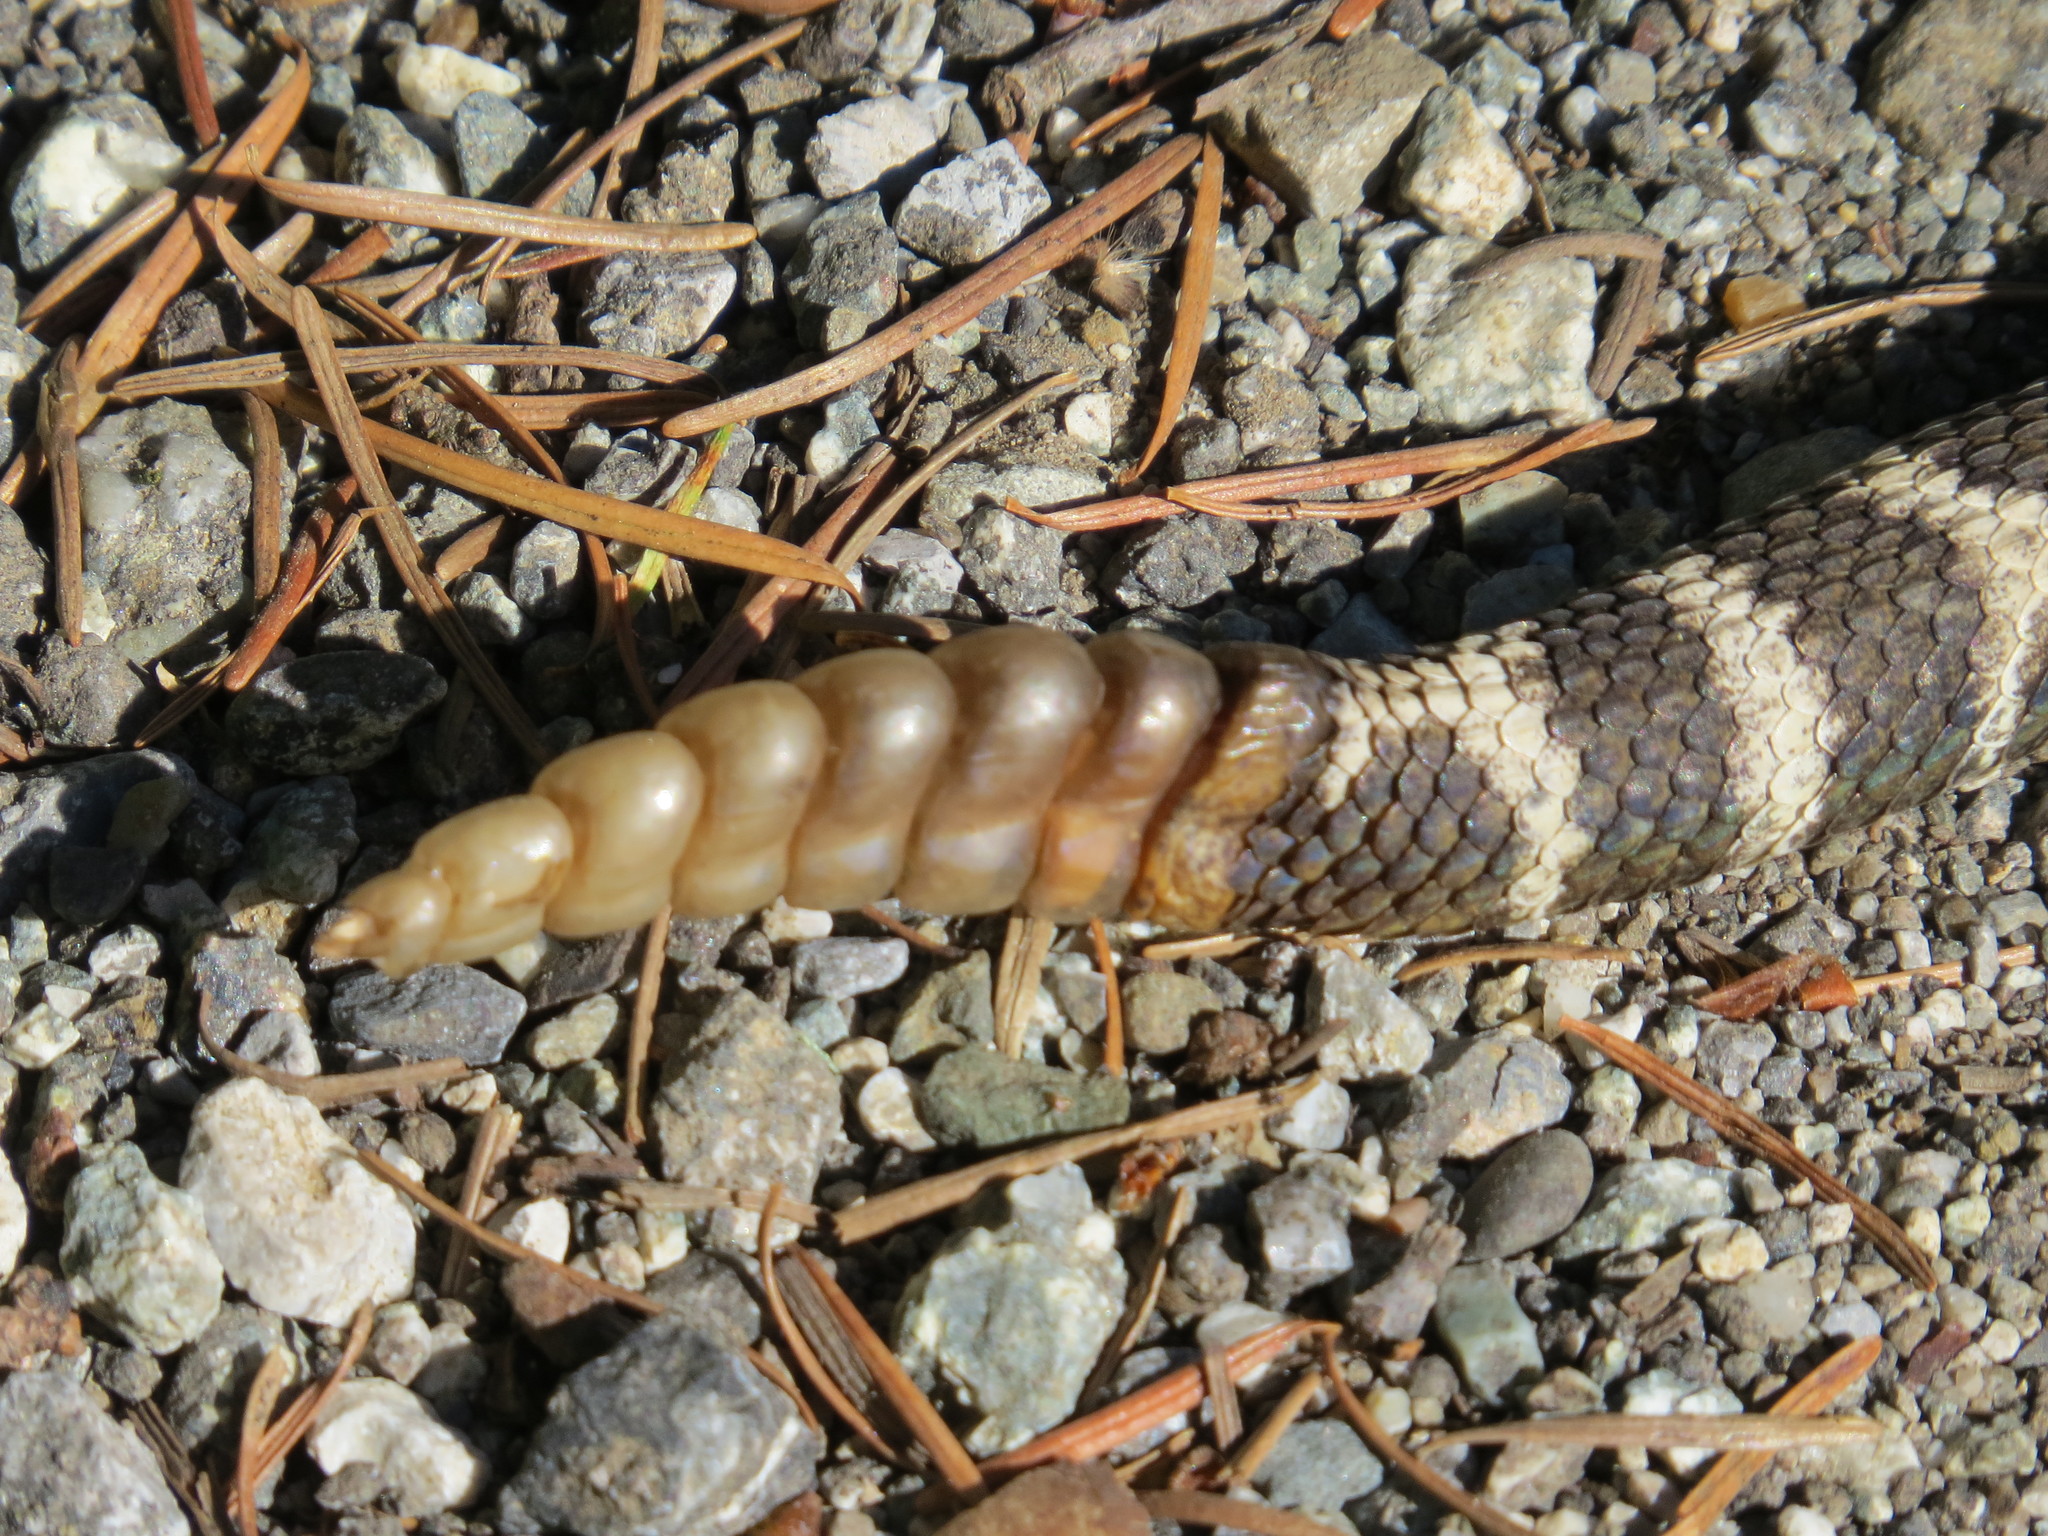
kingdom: Animalia
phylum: Chordata
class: Squamata
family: Viperidae
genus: Crotalus
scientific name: Crotalus oreganus
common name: Abyssus
